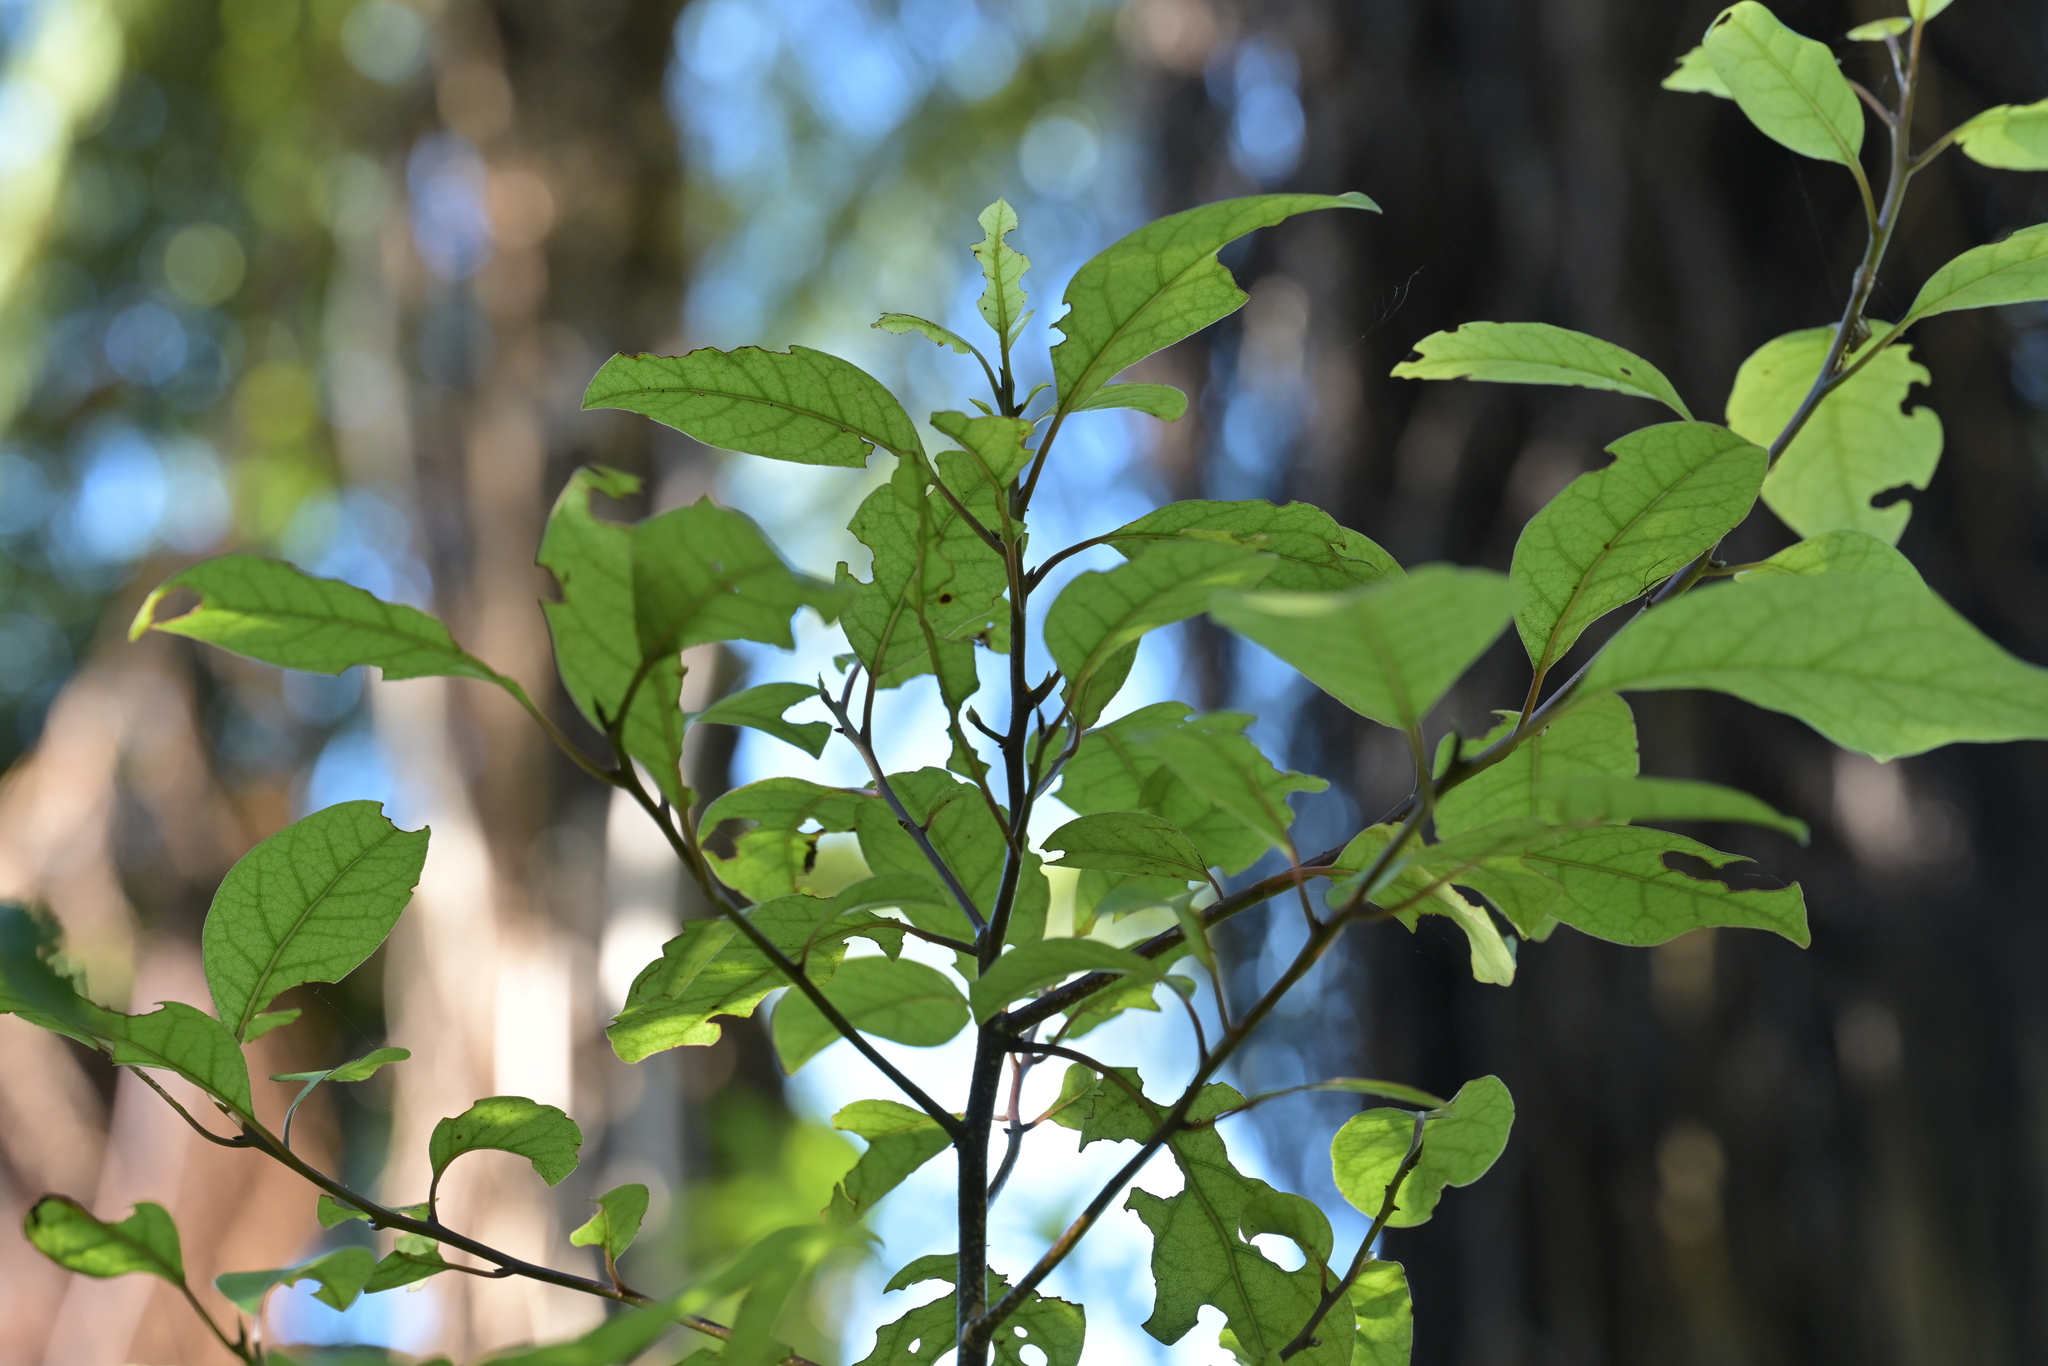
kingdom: Plantae
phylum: Tracheophyta
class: Magnoliopsida
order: Laurales
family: Lauraceae
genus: Litsea
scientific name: Litsea calicaris
